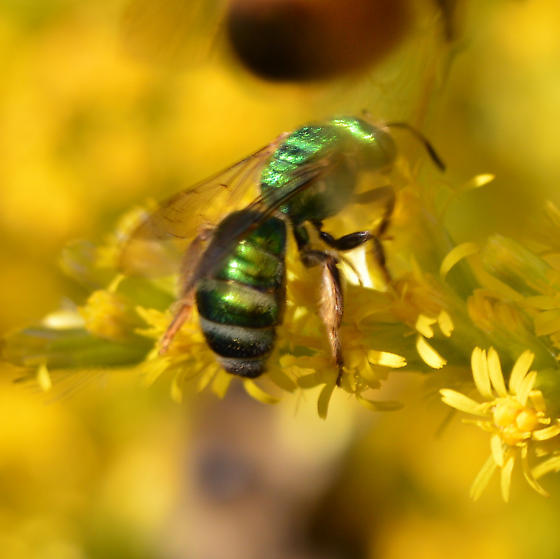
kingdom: Animalia
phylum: Arthropoda
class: Insecta
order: Hymenoptera
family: Halictidae
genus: Agapostemon
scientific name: Agapostemon sericeus
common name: Silky striped sweat bee
